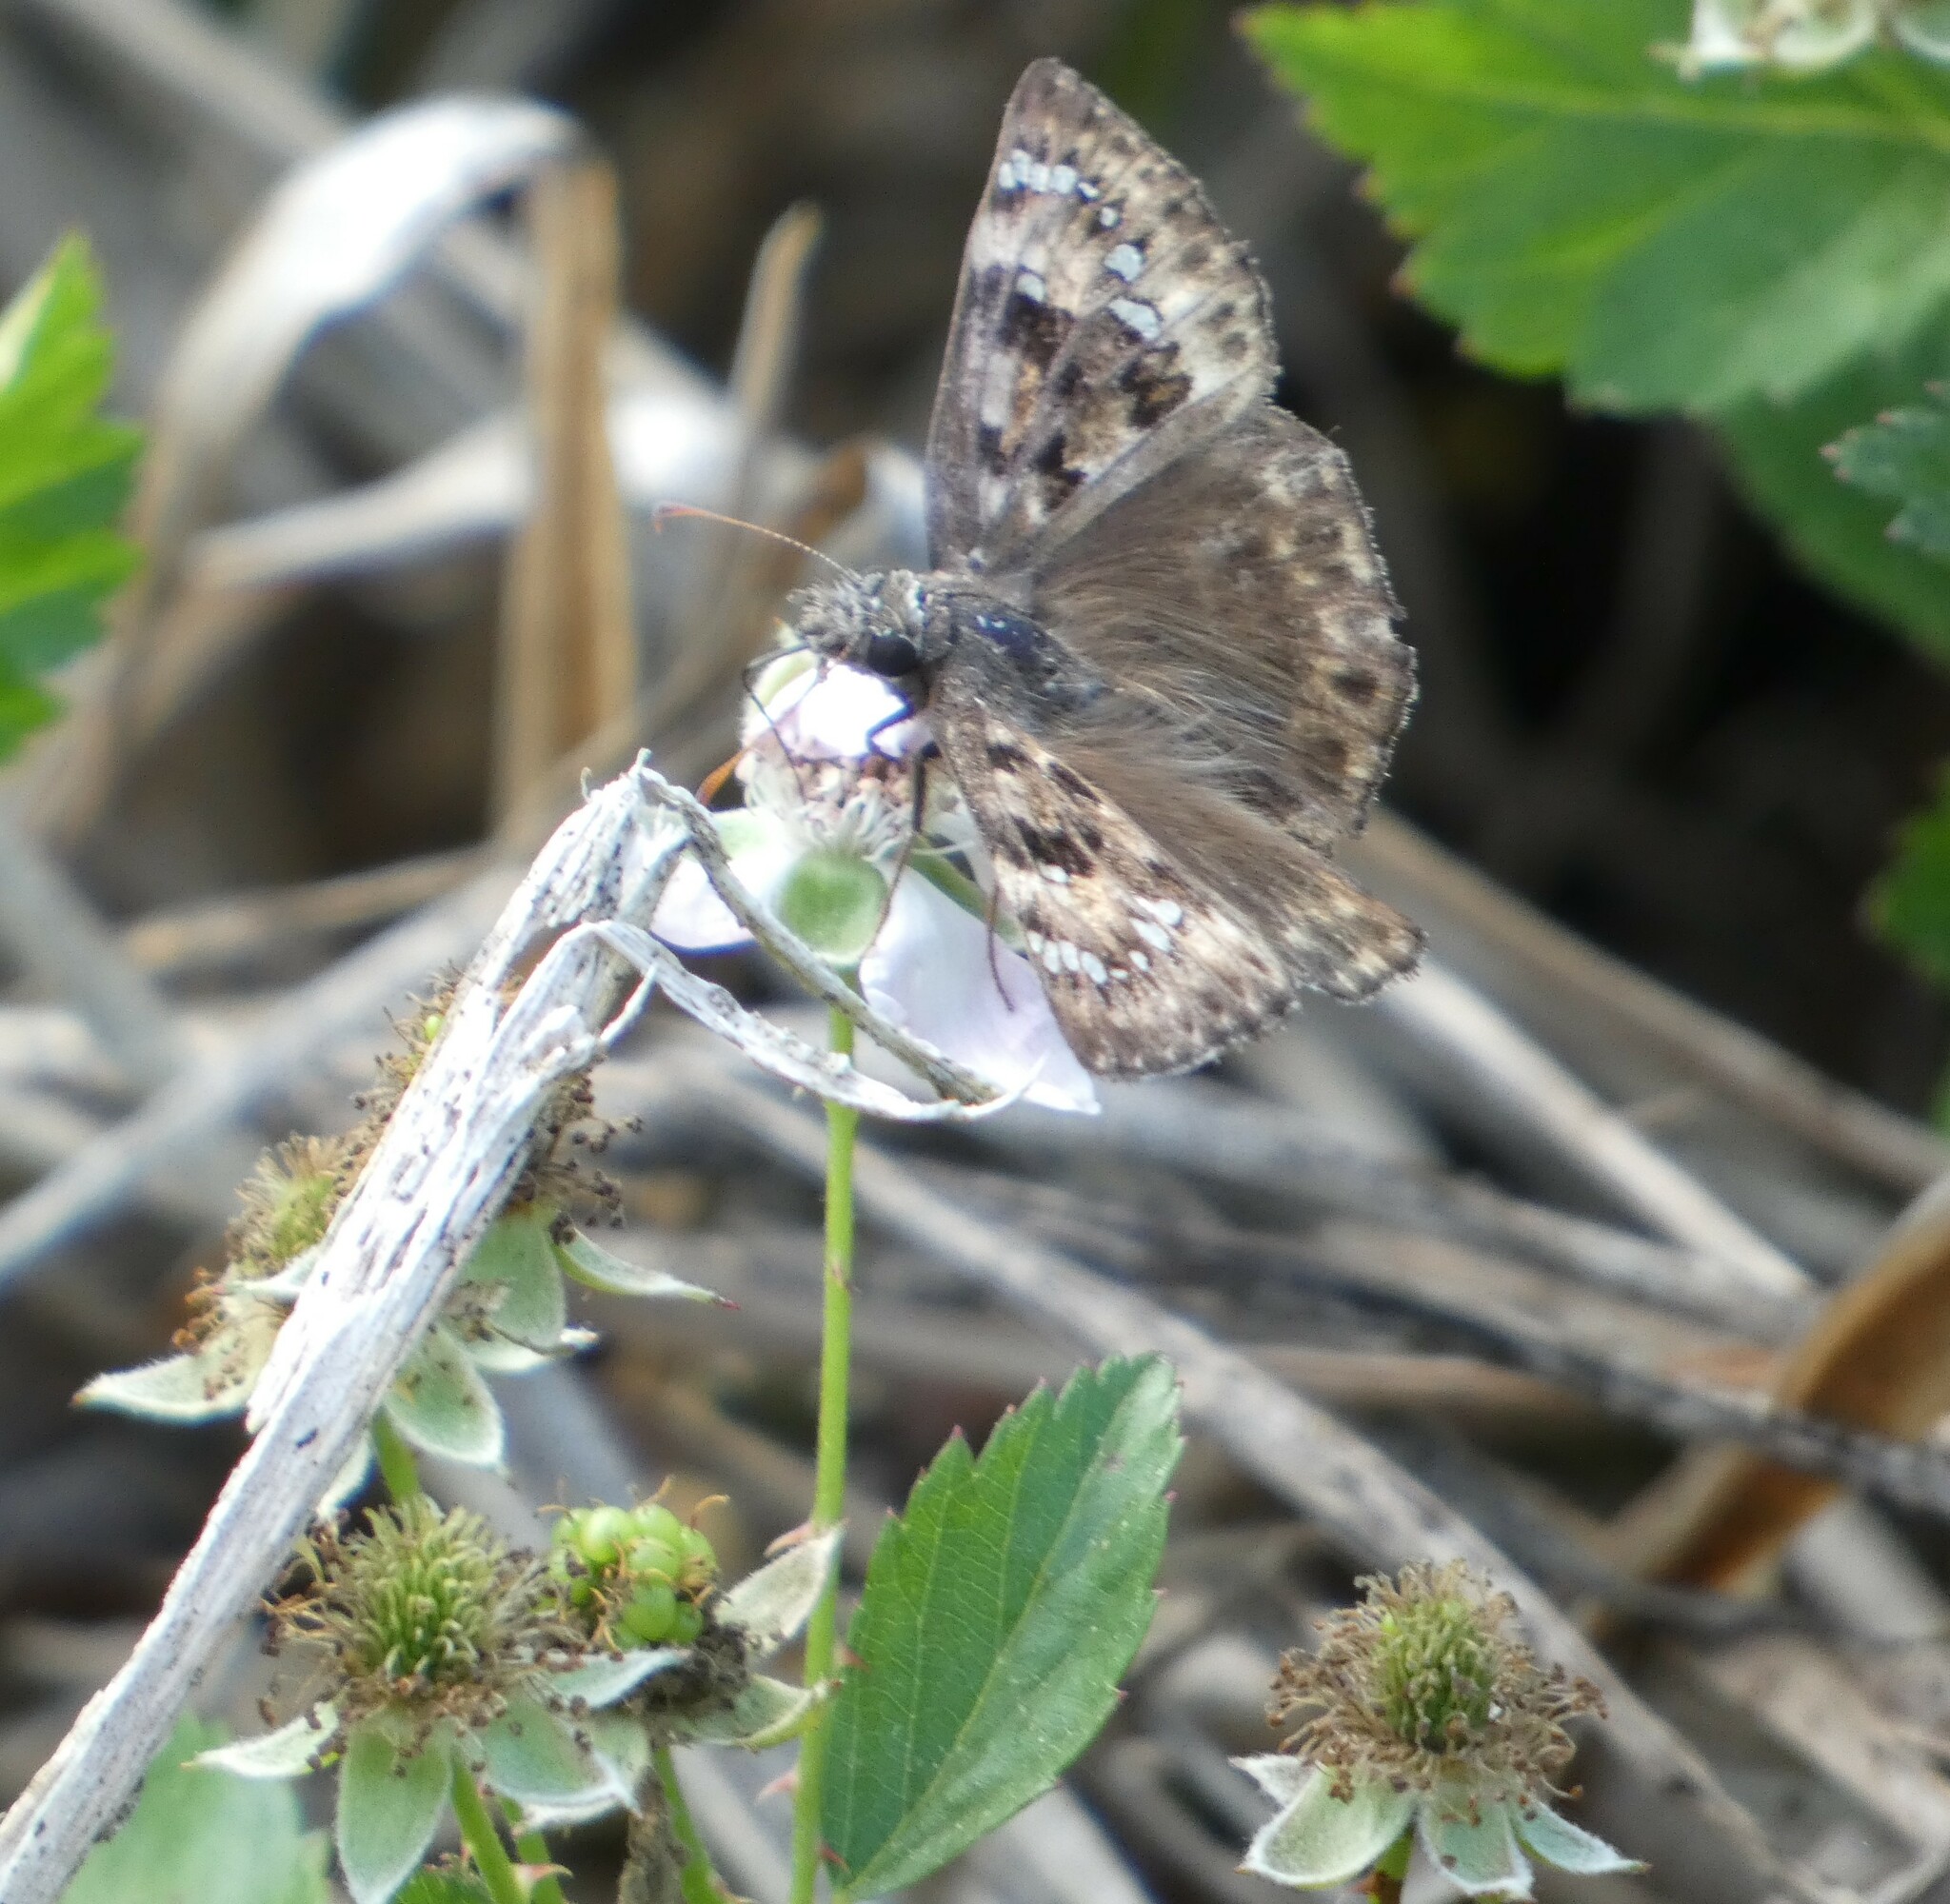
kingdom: Animalia
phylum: Arthropoda
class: Insecta
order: Lepidoptera
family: Hesperiidae
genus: Erynnis
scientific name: Erynnis horatius
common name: Horace's duskywing
